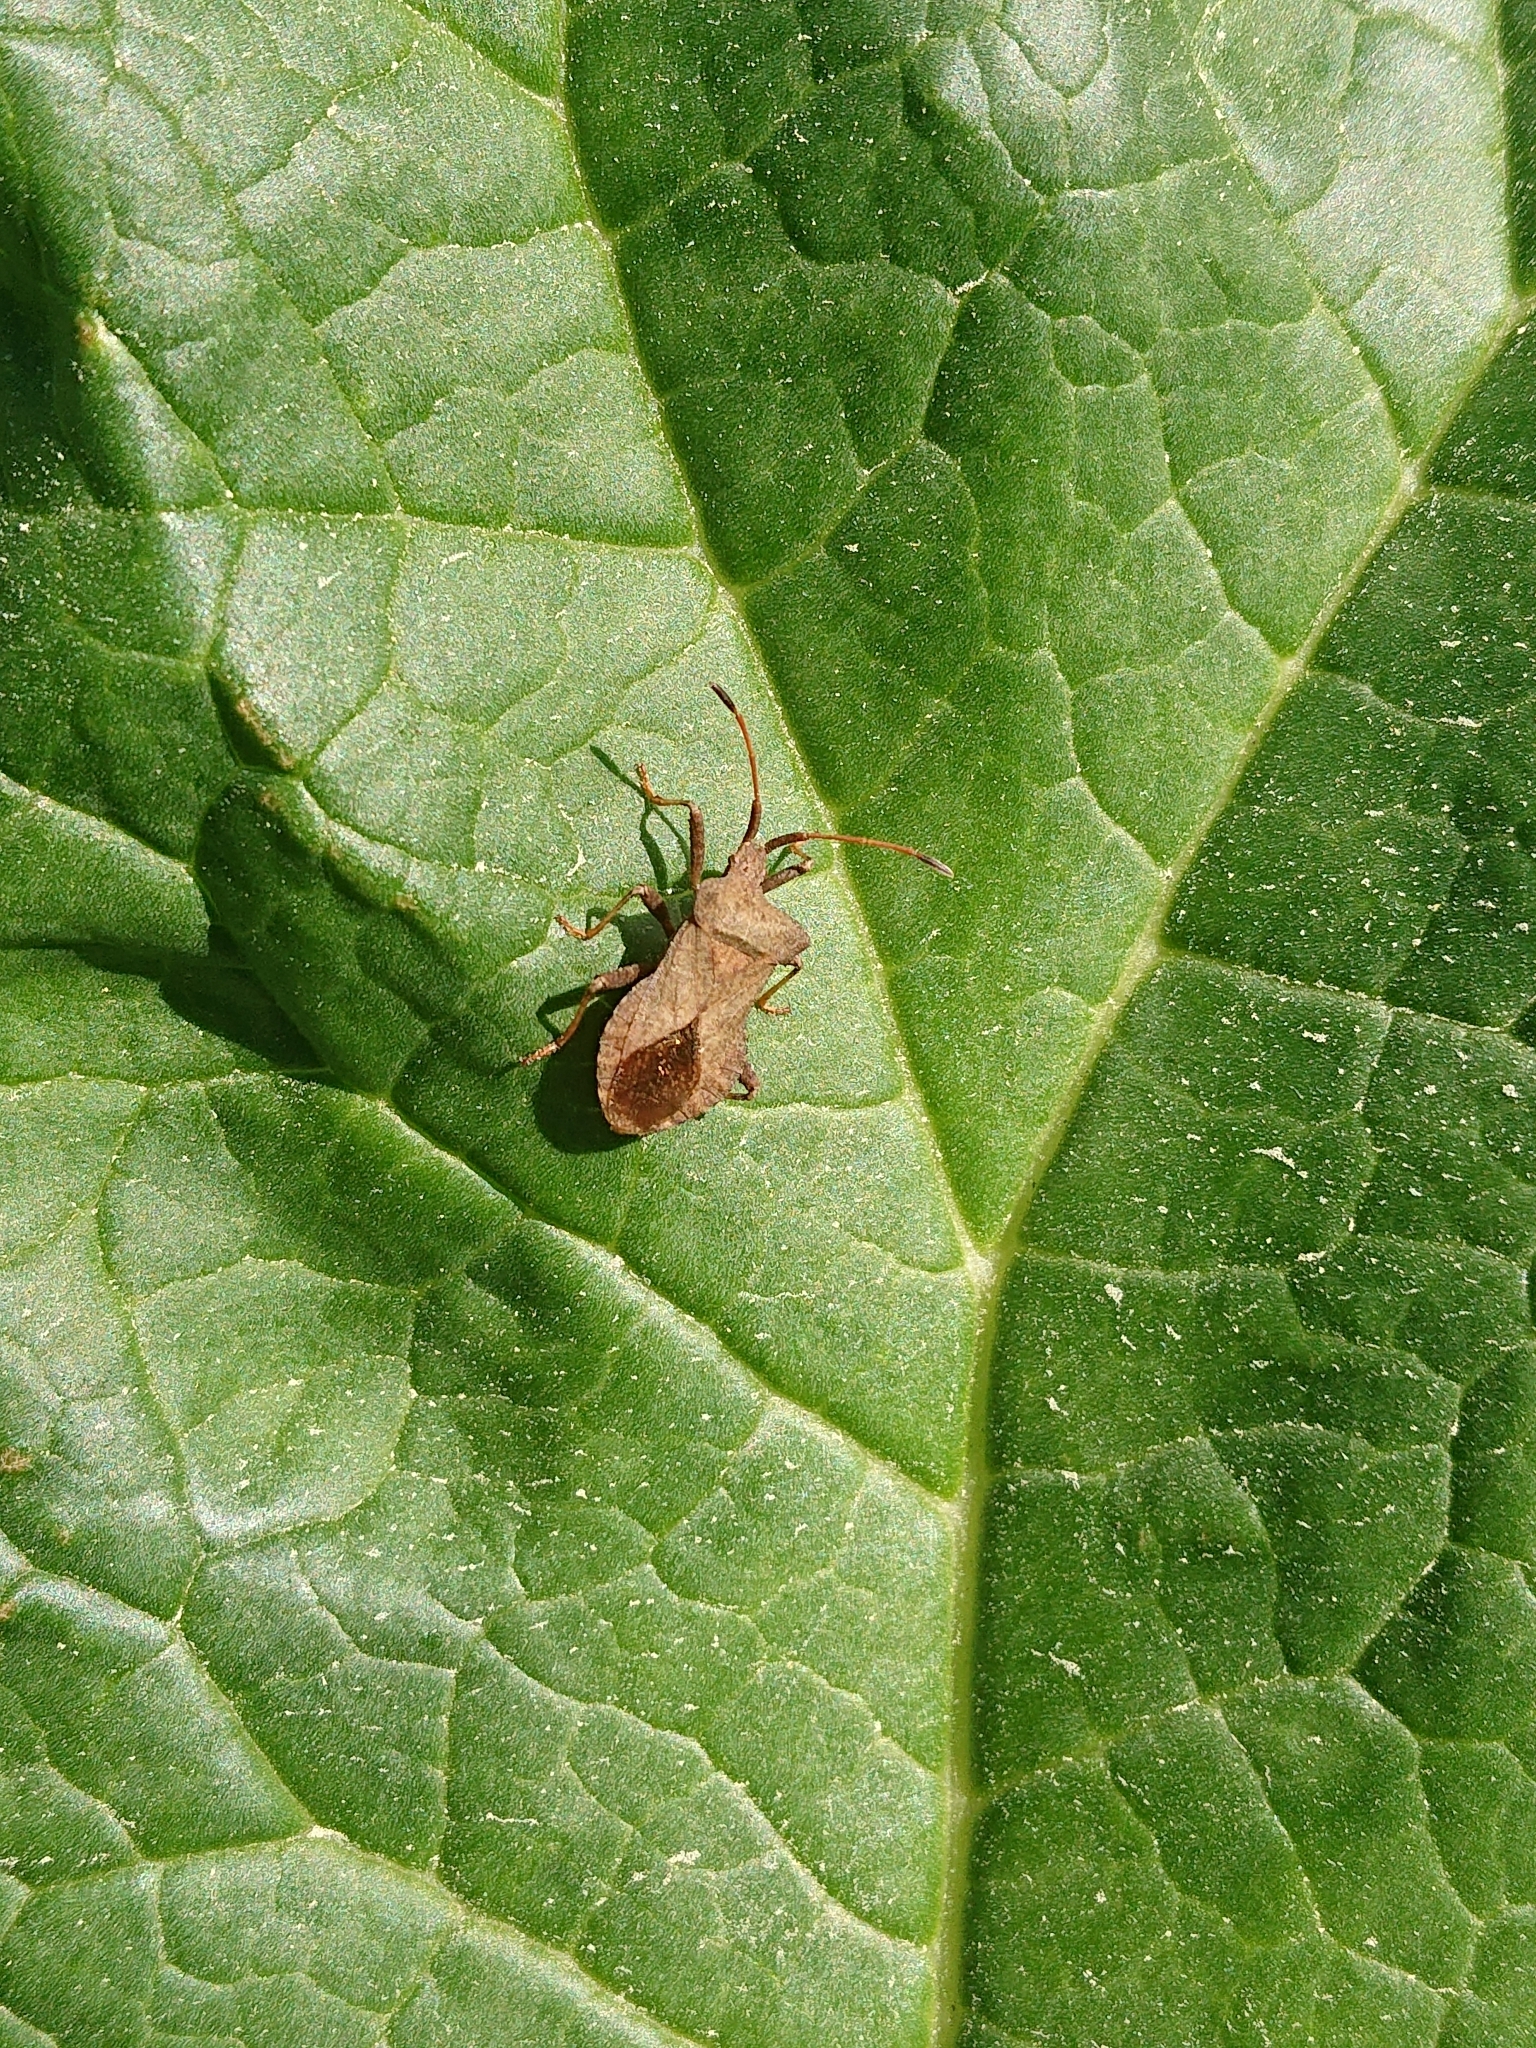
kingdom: Animalia
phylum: Arthropoda
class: Insecta
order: Hemiptera
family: Coreidae
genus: Coreus
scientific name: Coreus marginatus
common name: Dock bug
